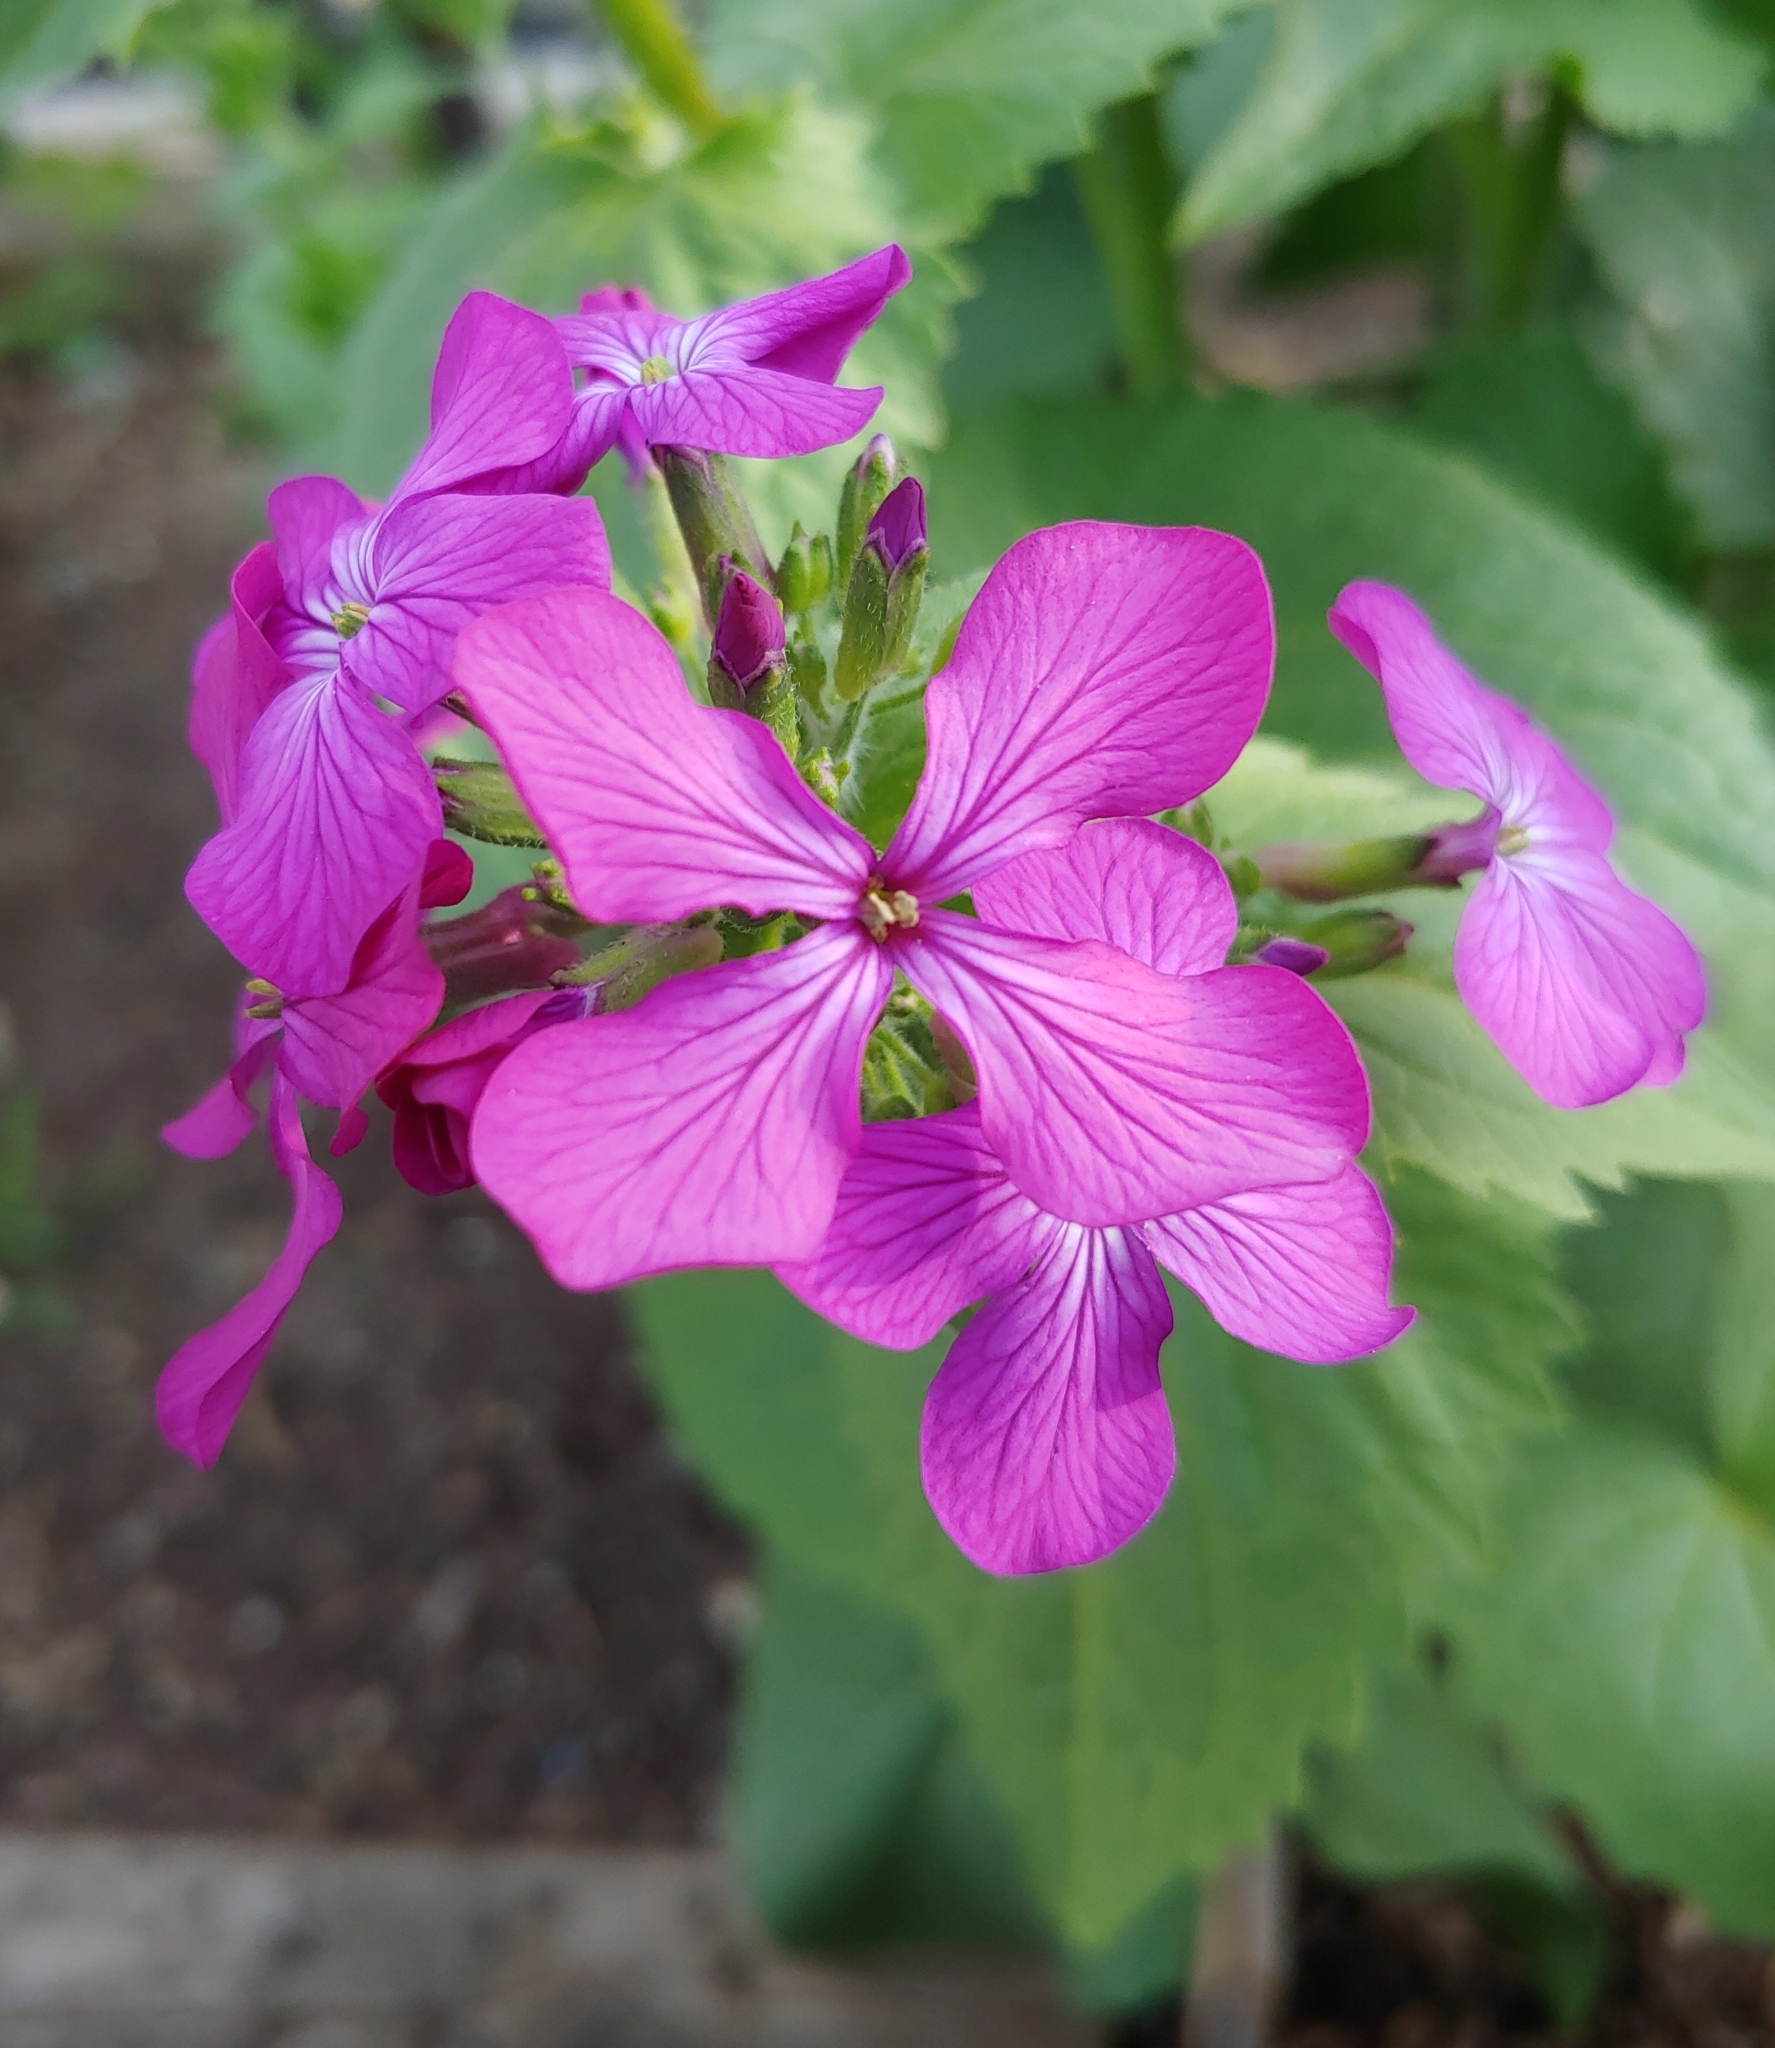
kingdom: Plantae
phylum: Tracheophyta
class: Magnoliopsida
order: Brassicales
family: Brassicaceae
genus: Lunaria
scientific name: Lunaria annua
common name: Honesty
